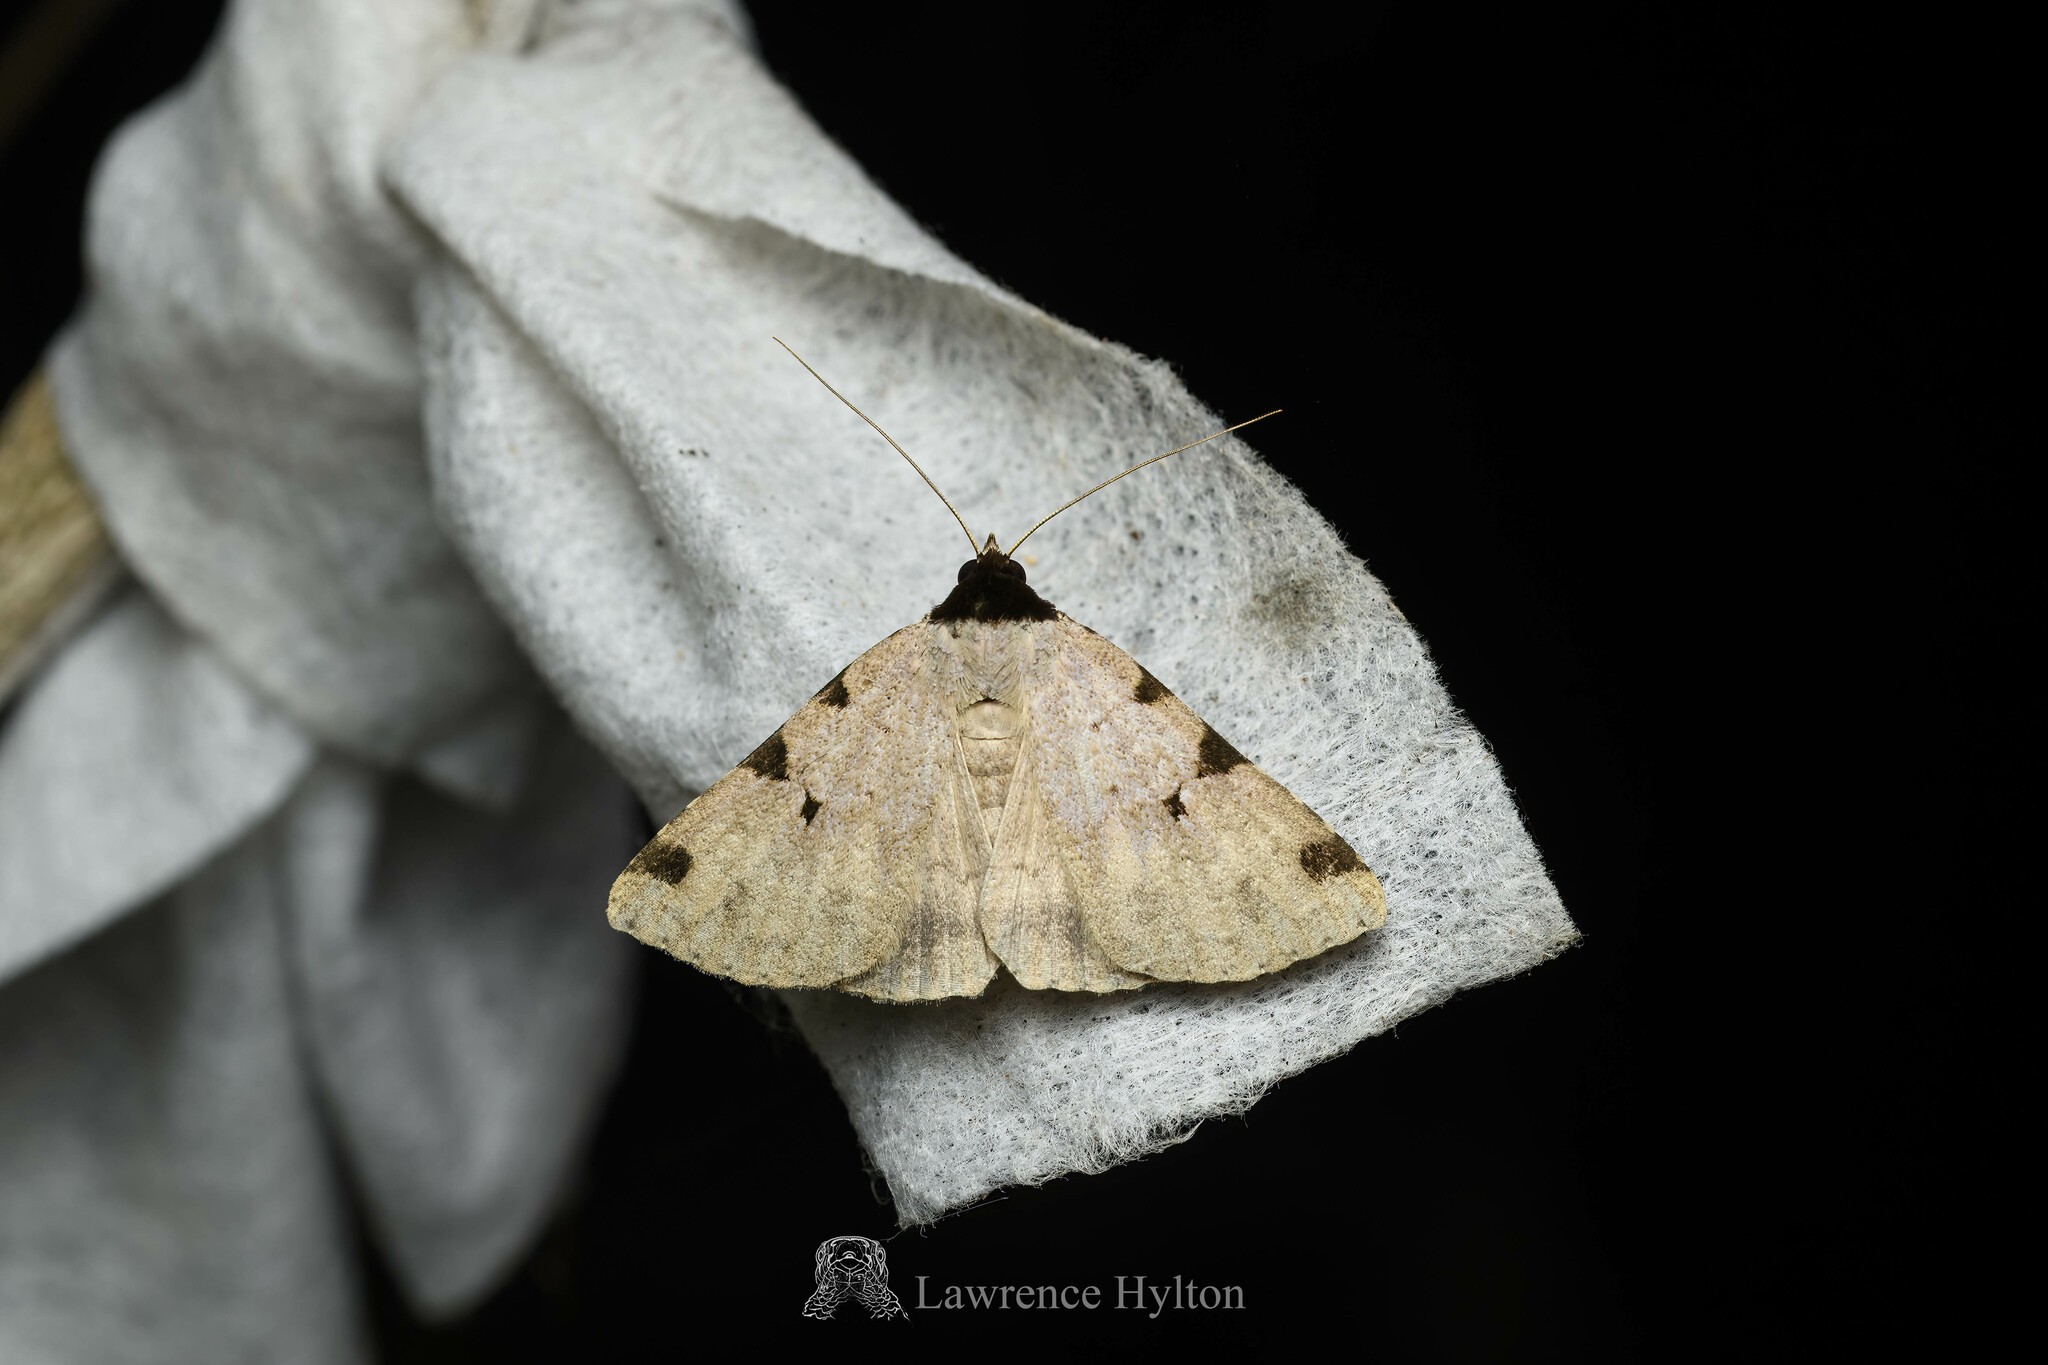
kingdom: Animalia
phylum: Arthropoda
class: Insecta
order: Lepidoptera
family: Erebidae
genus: Rema
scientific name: Rema costimacula
